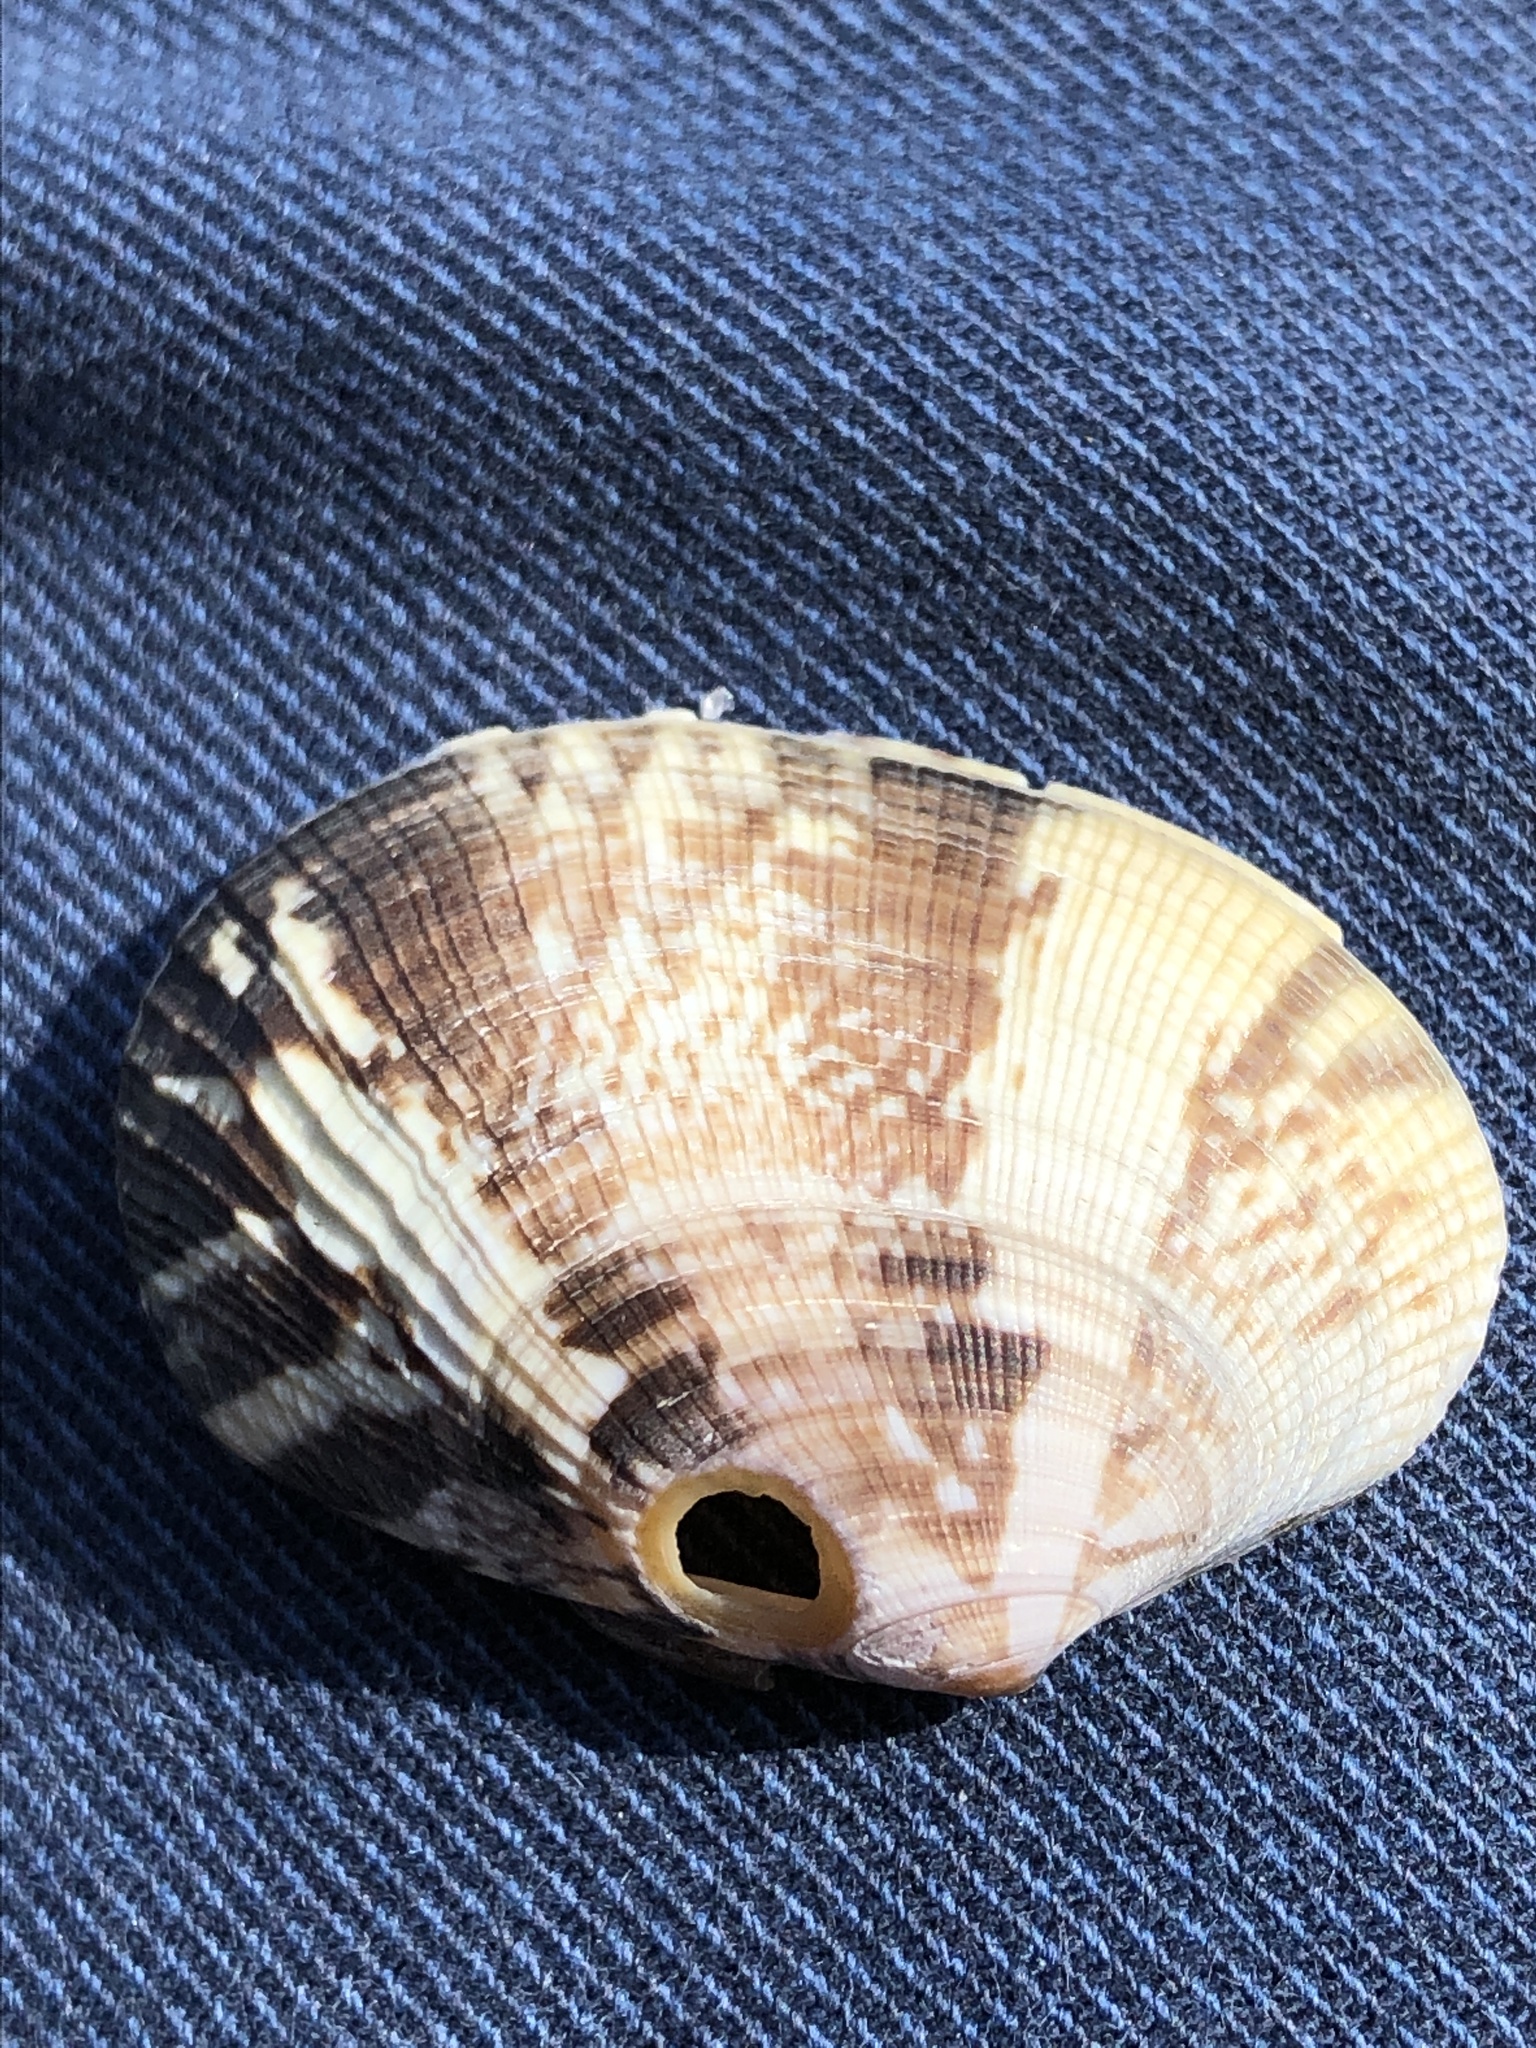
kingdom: Animalia
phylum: Mollusca
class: Bivalvia
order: Venerida
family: Veneridae
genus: Ruditapes
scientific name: Ruditapes philippinarum
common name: Manila clam
